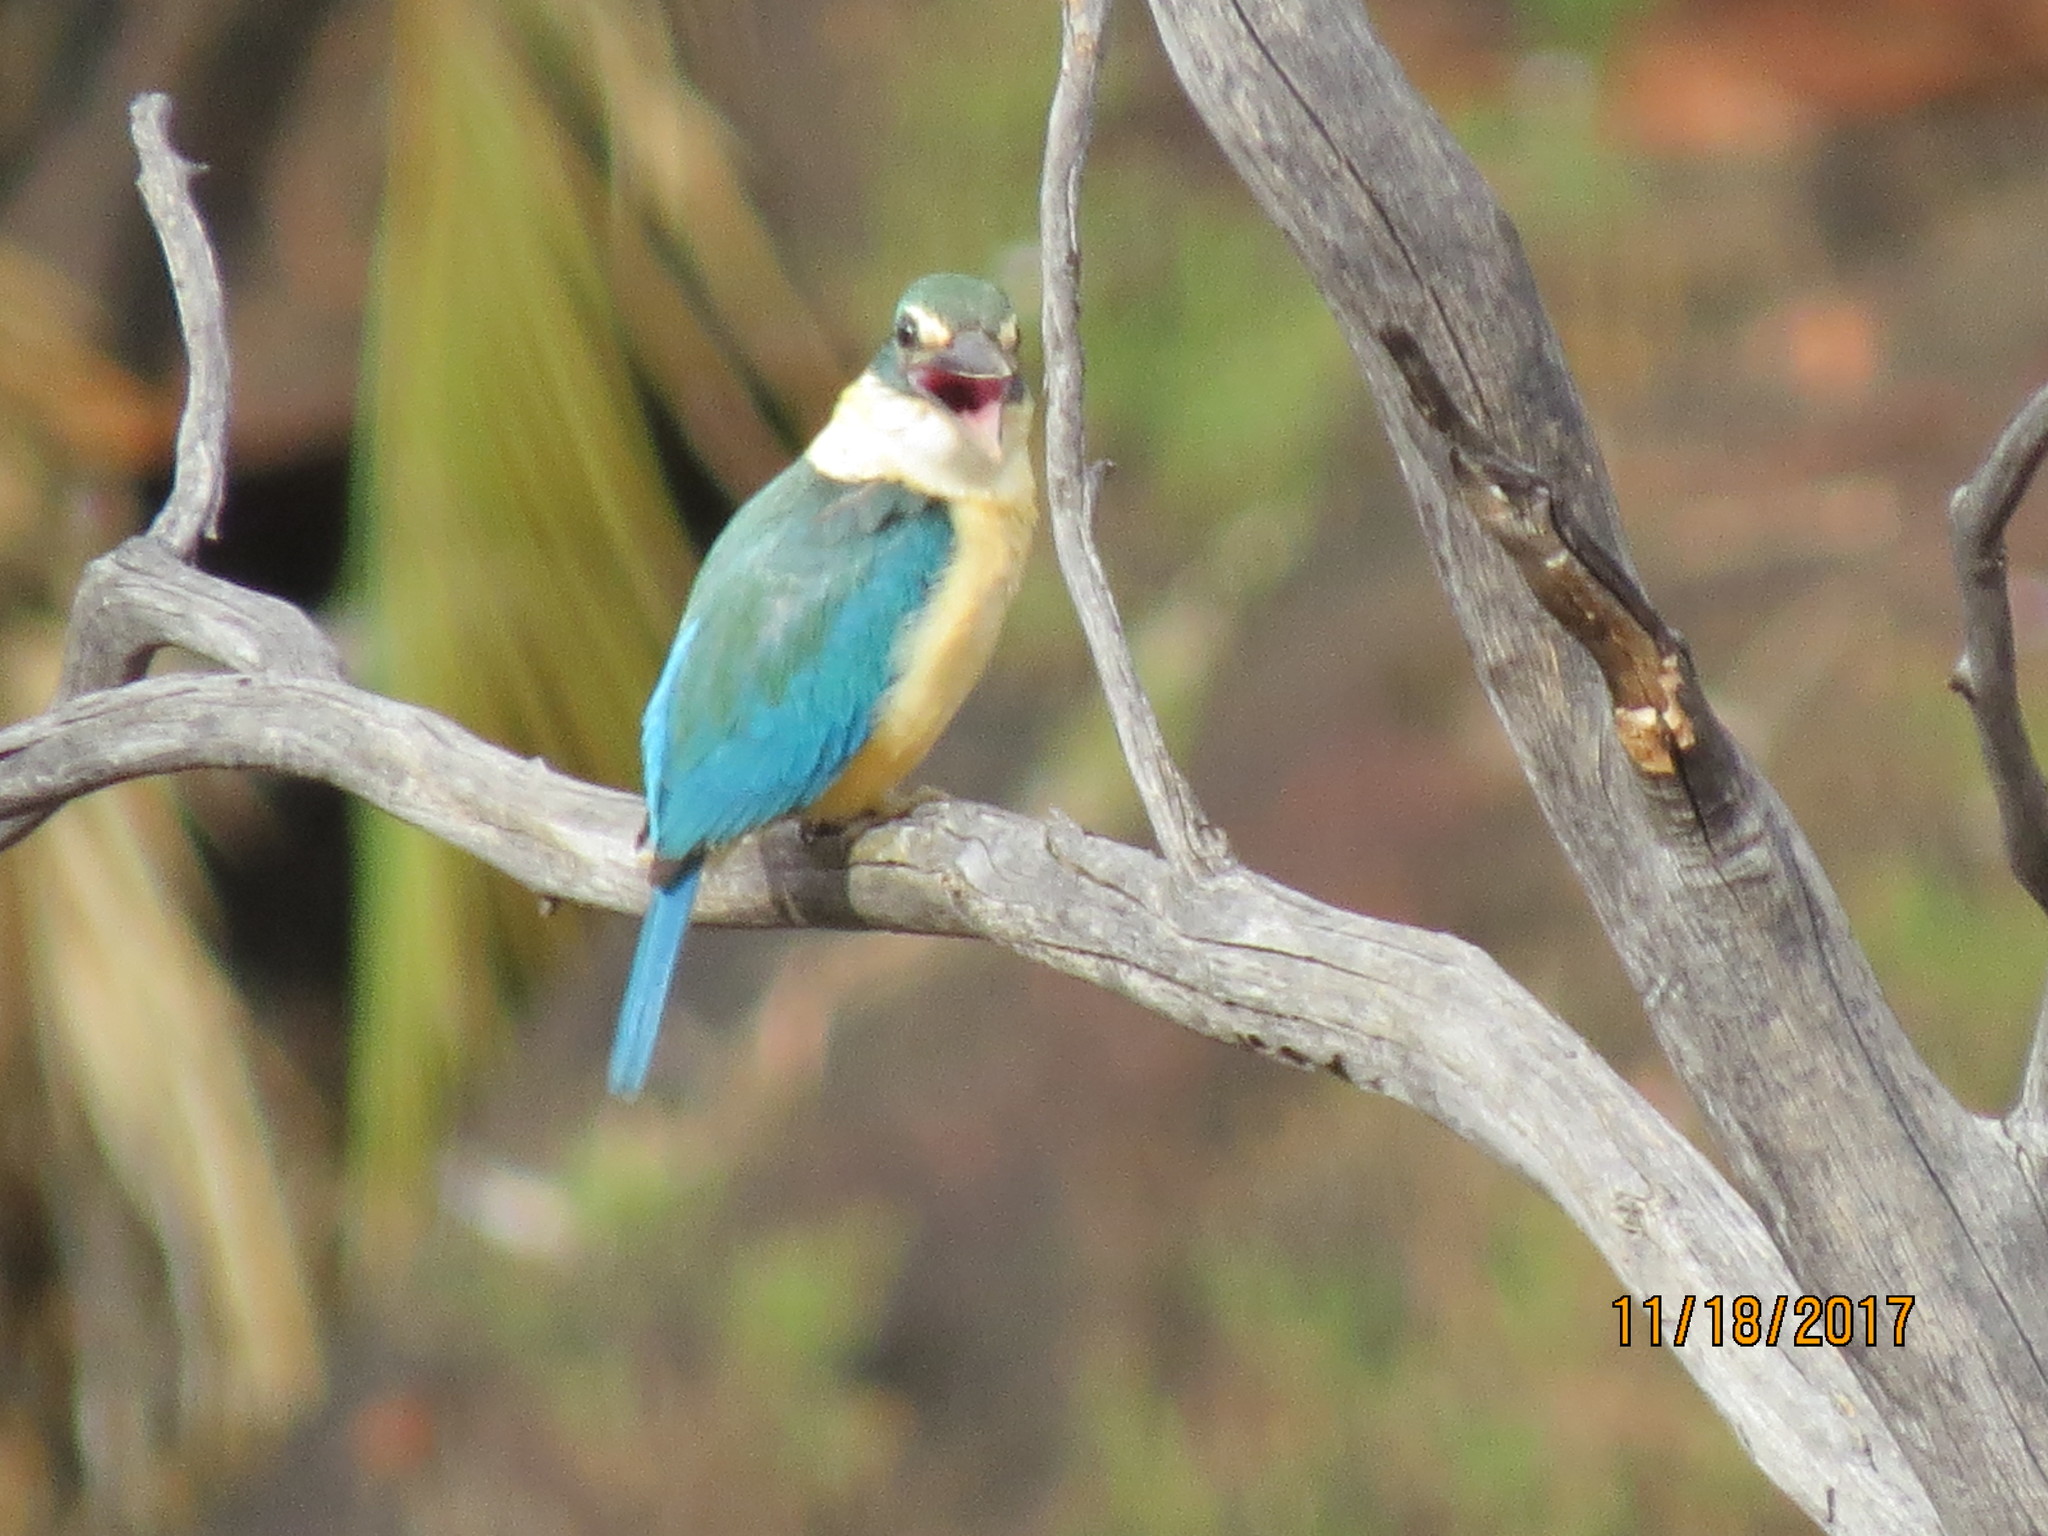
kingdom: Animalia
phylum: Chordata
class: Aves
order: Coraciiformes
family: Alcedinidae
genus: Todiramphus
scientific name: Todiramphus sanctus
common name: Sacred kingfisher
